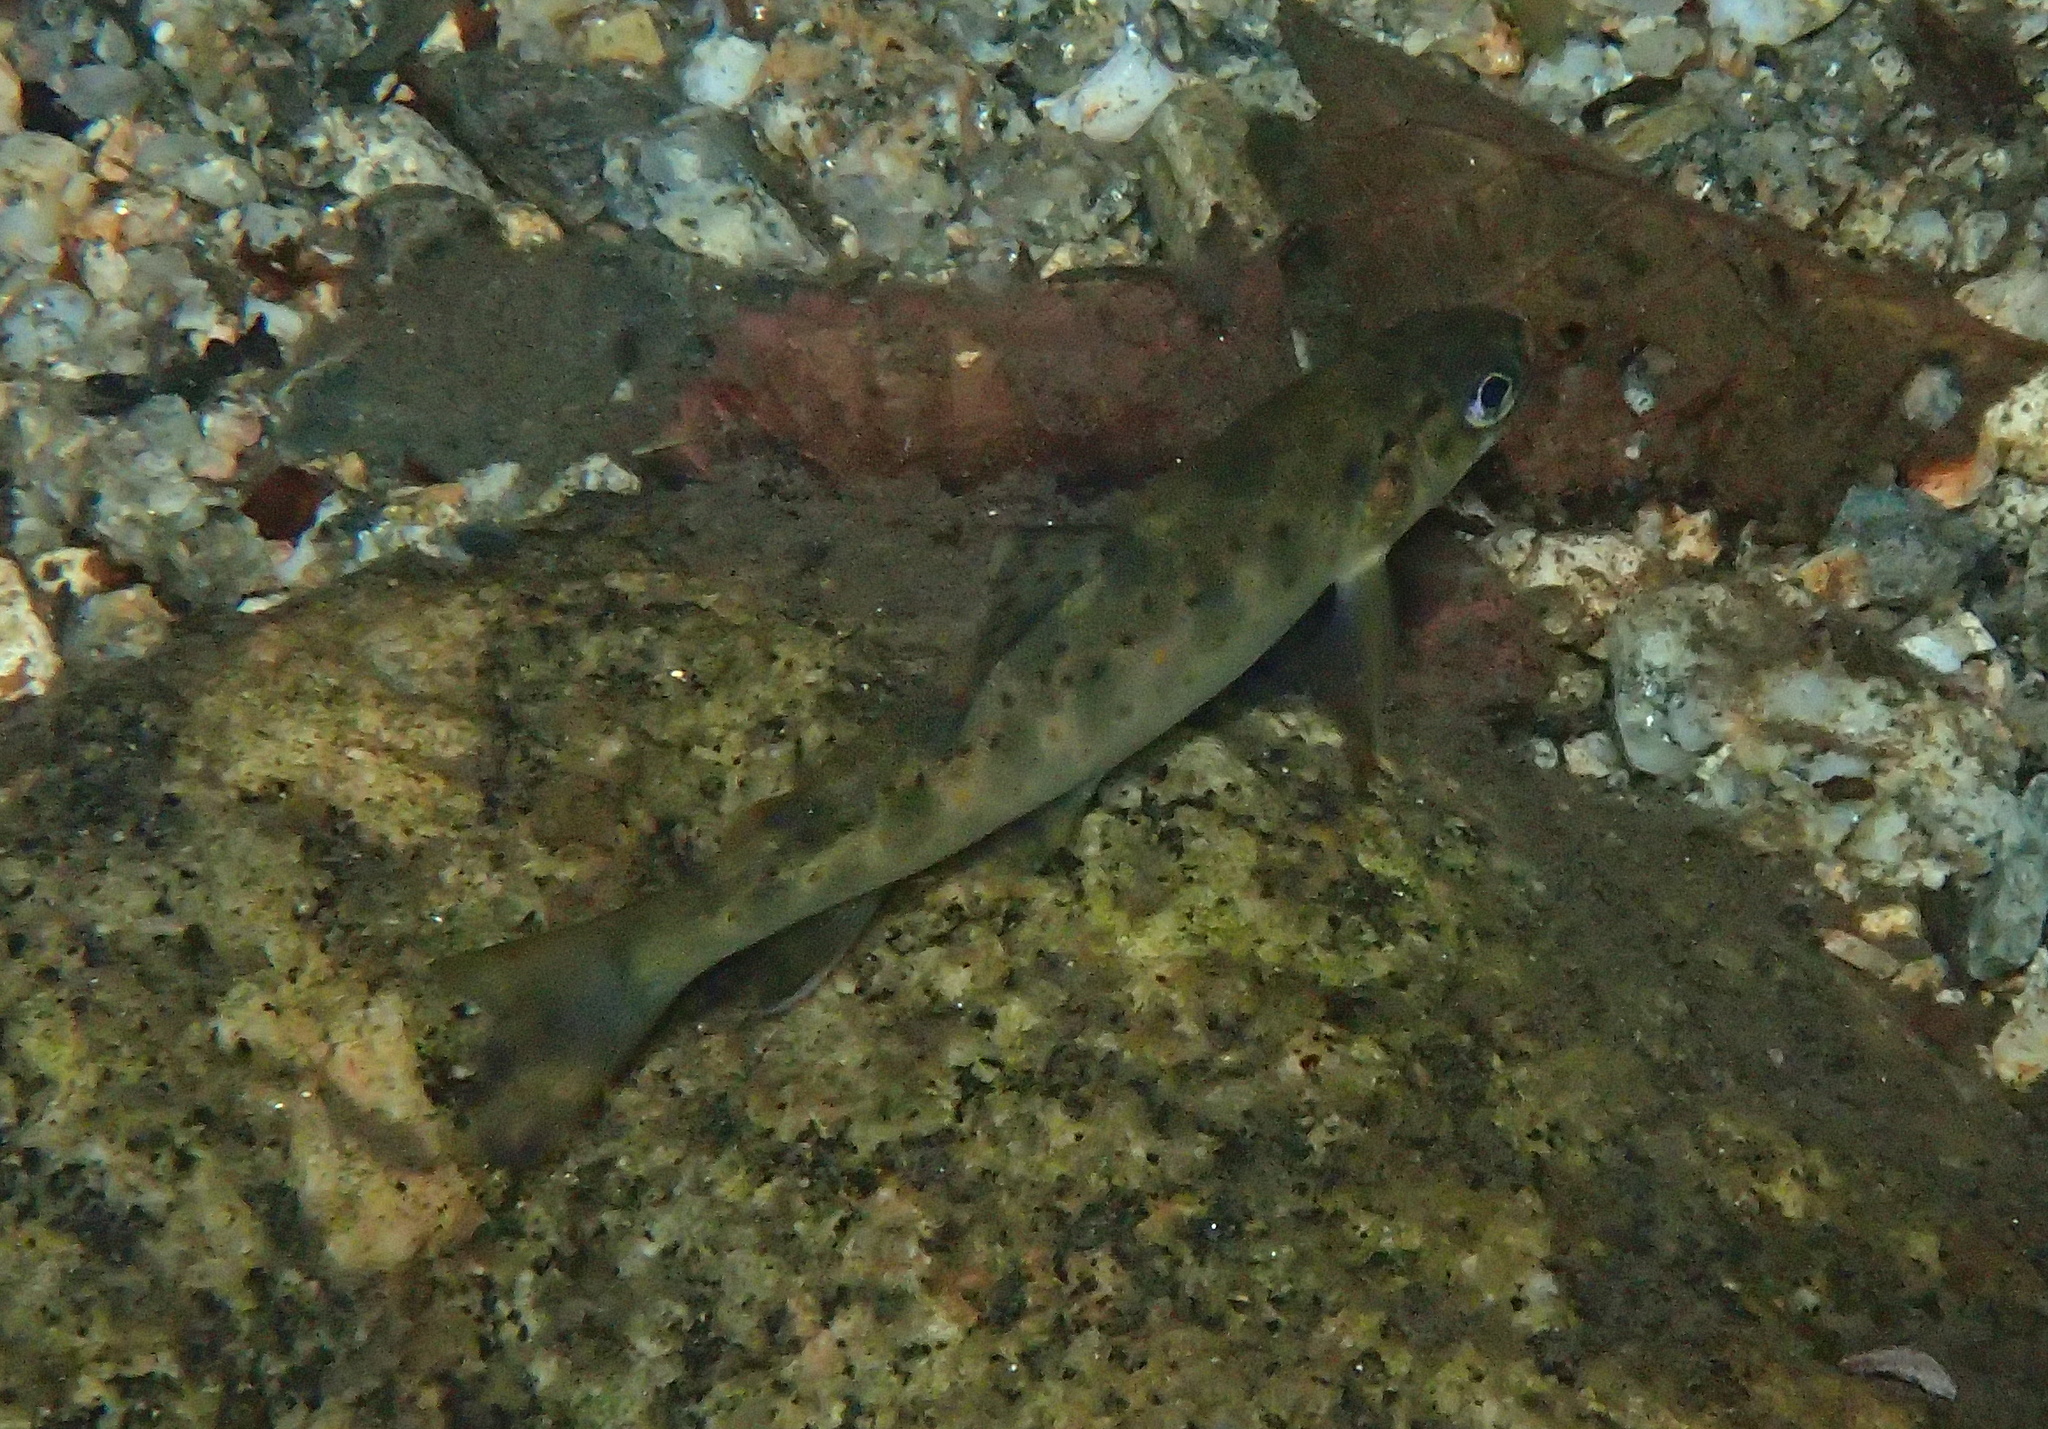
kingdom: Animalia
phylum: Chordata
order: Salmoniformes
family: Salmonidae
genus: Salmo
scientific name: Salmo trutta
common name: Brown trout
